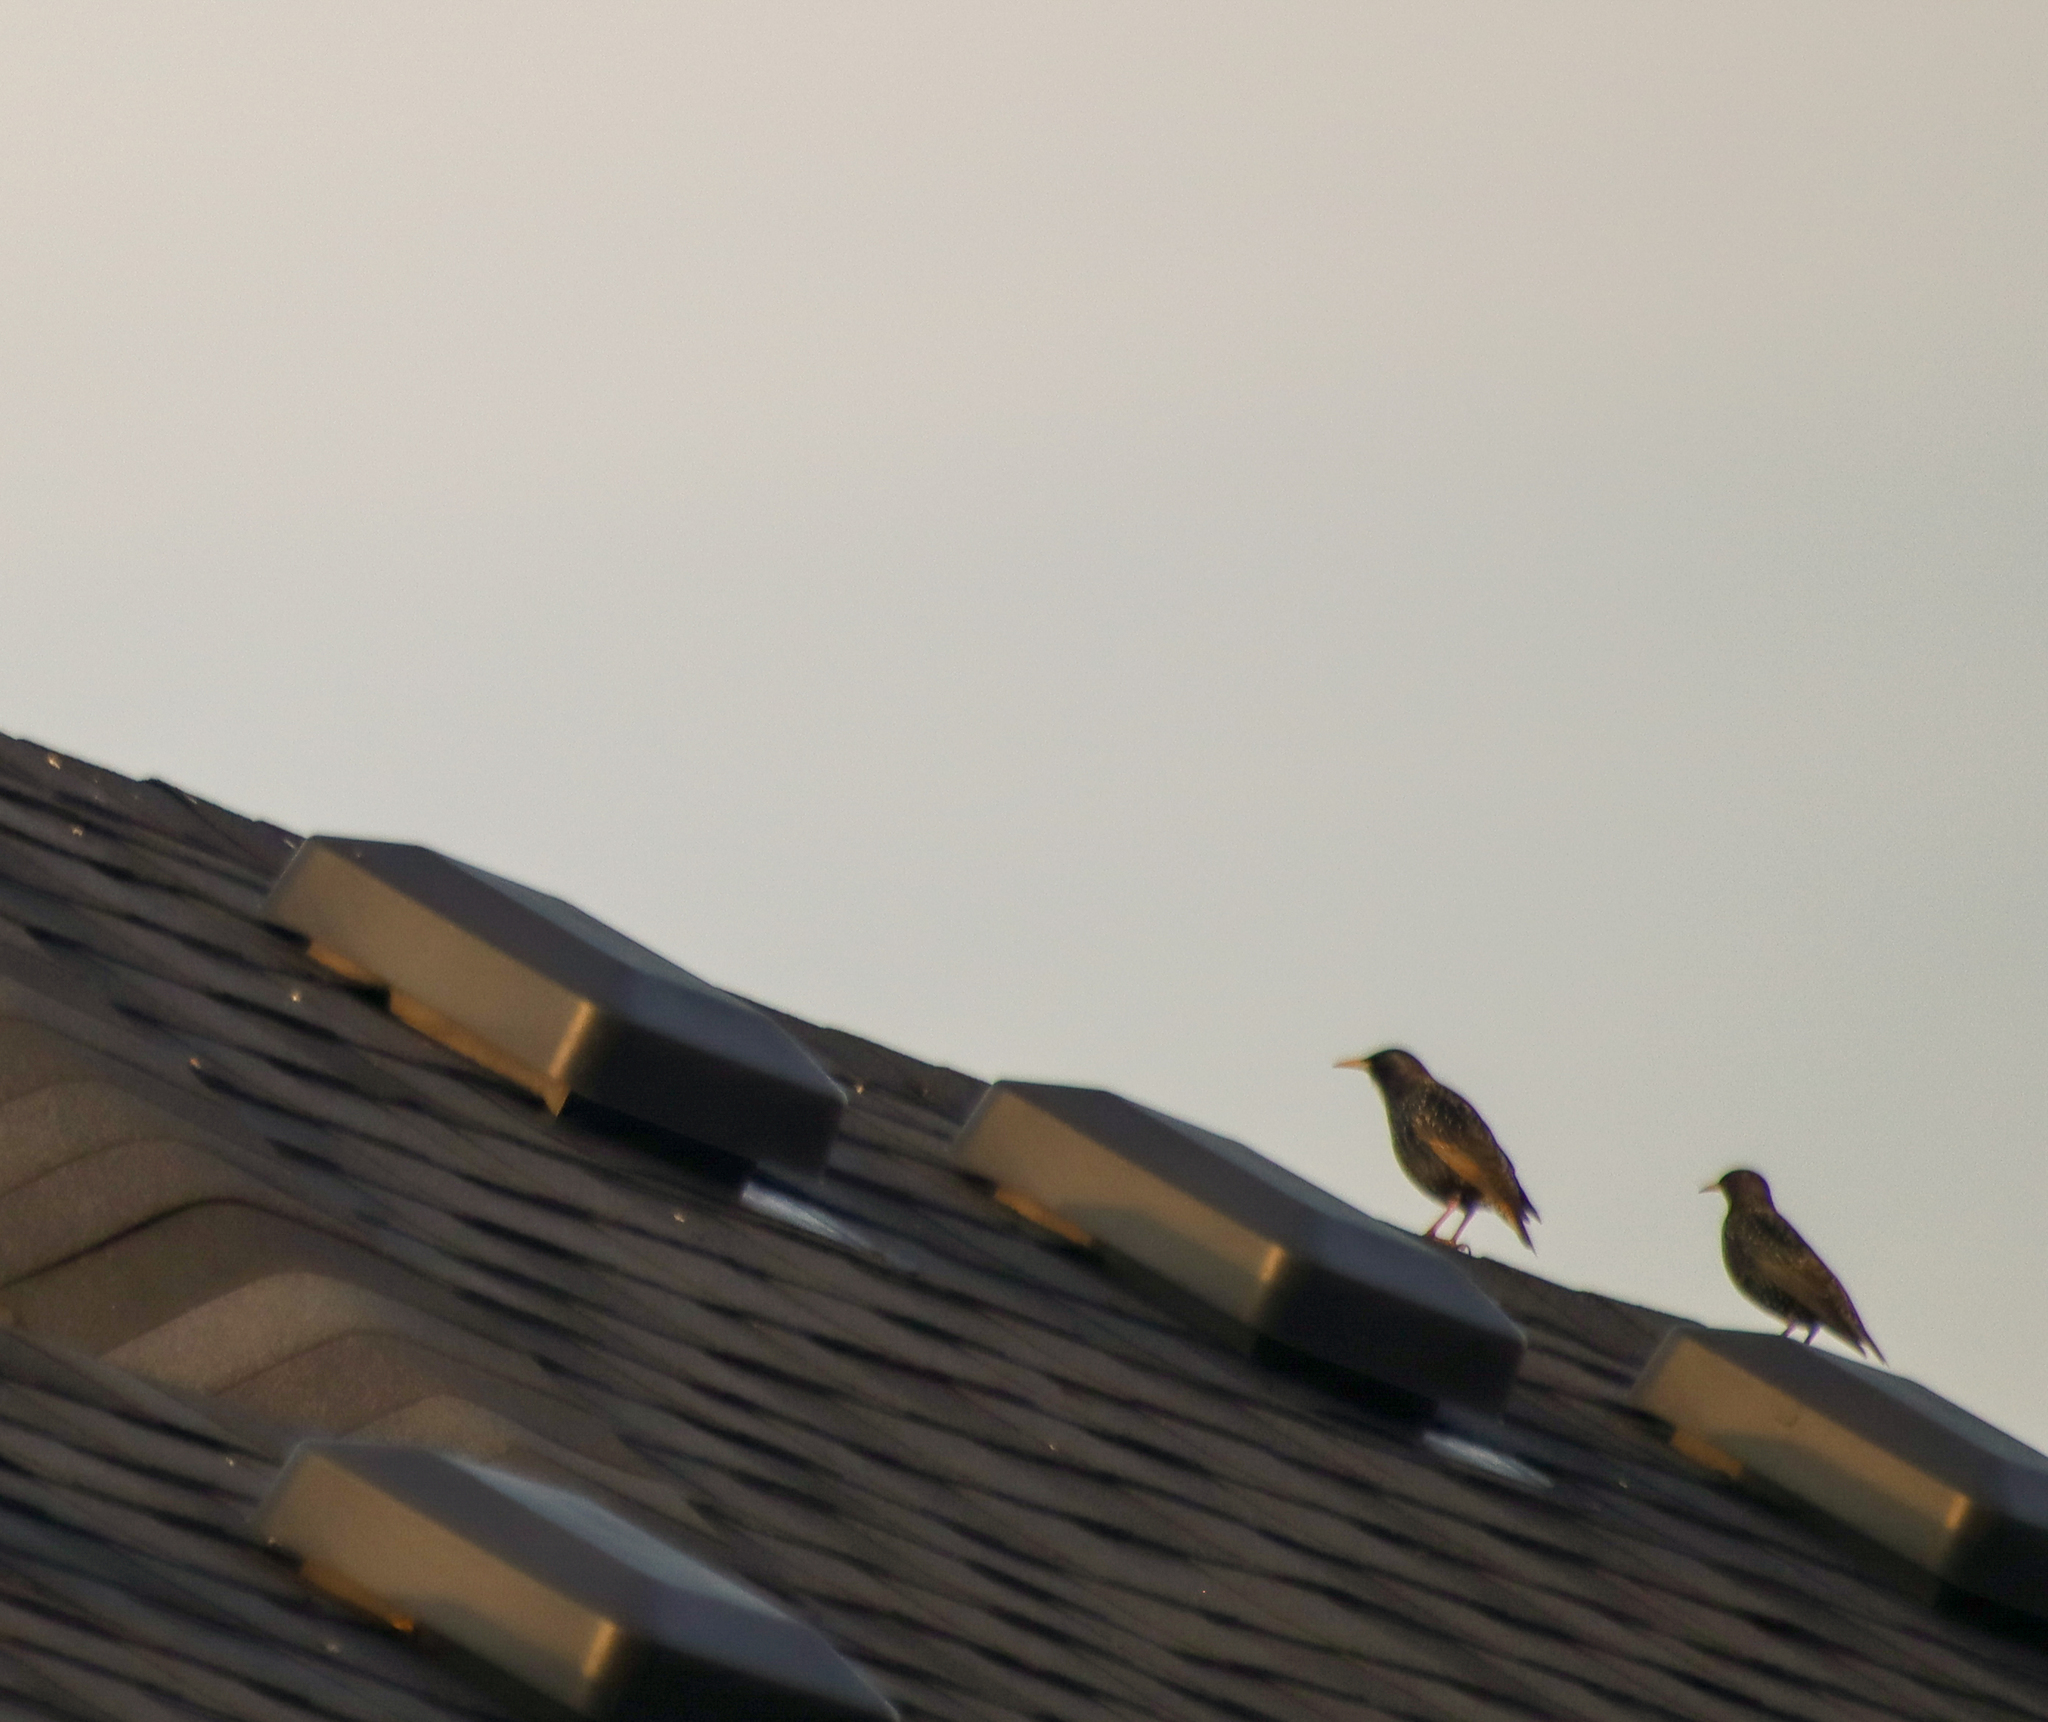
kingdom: Animalia
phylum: Chordata
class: Aves
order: Passeriformes
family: Sturnidae
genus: Sturnus
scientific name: Sturnus vulgaris
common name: Common starling
